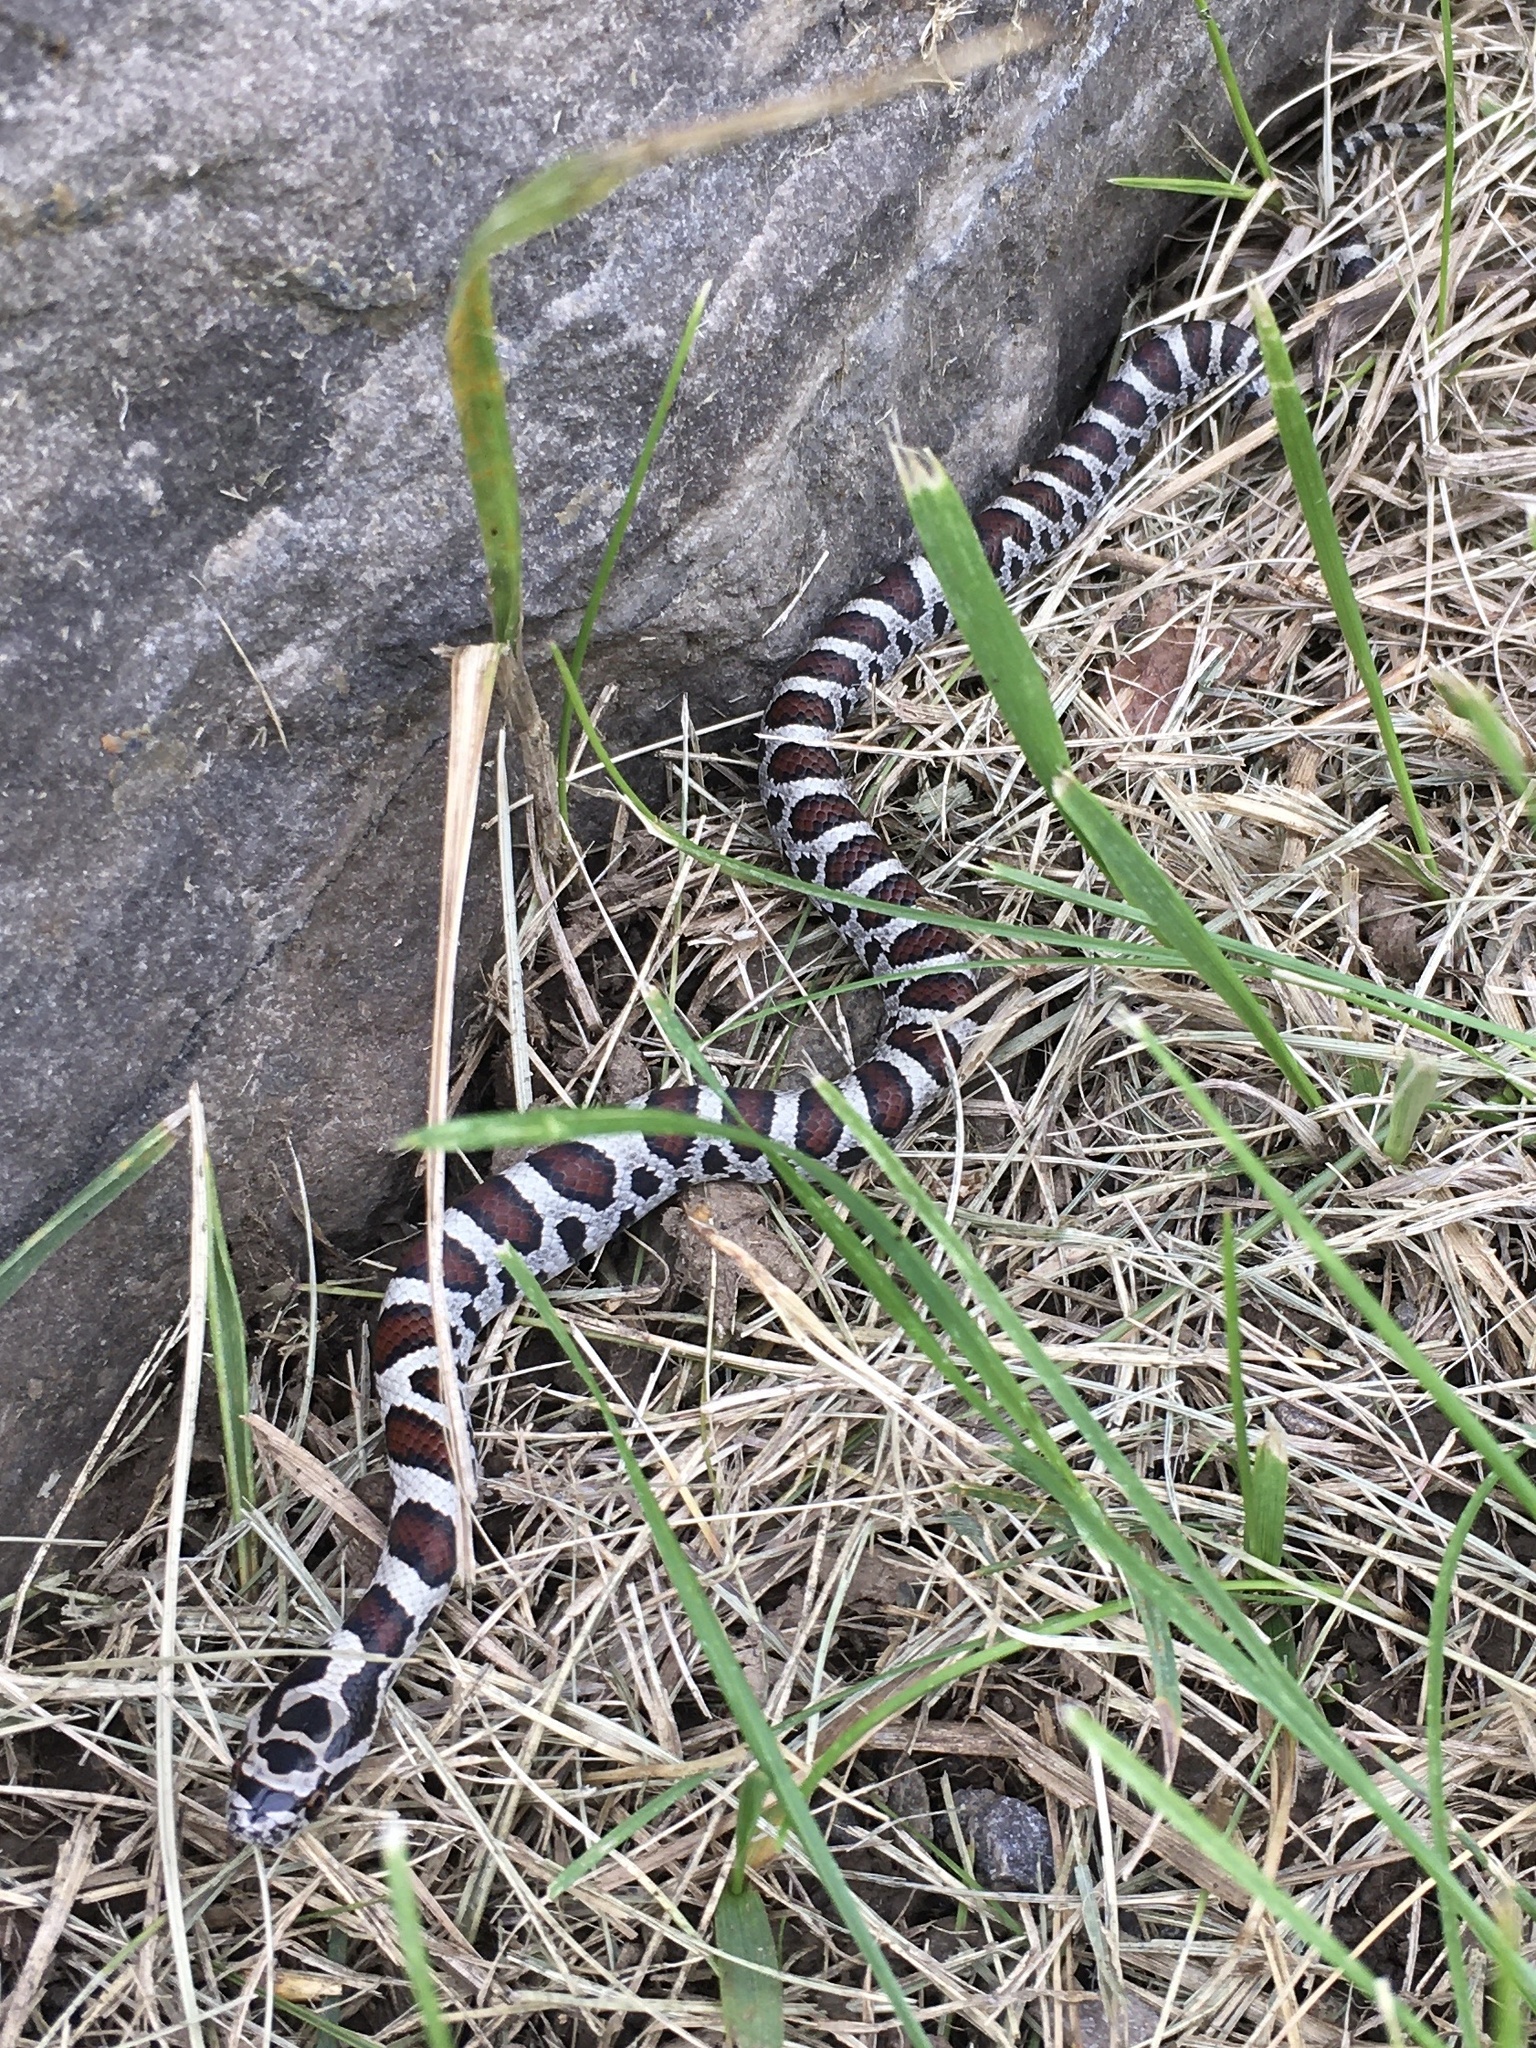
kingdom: Animalia
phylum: Chordata
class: Squamata
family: Colubridae
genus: Lampropeltis
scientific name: Lampropeltis triangulum
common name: Eastern milksnake
